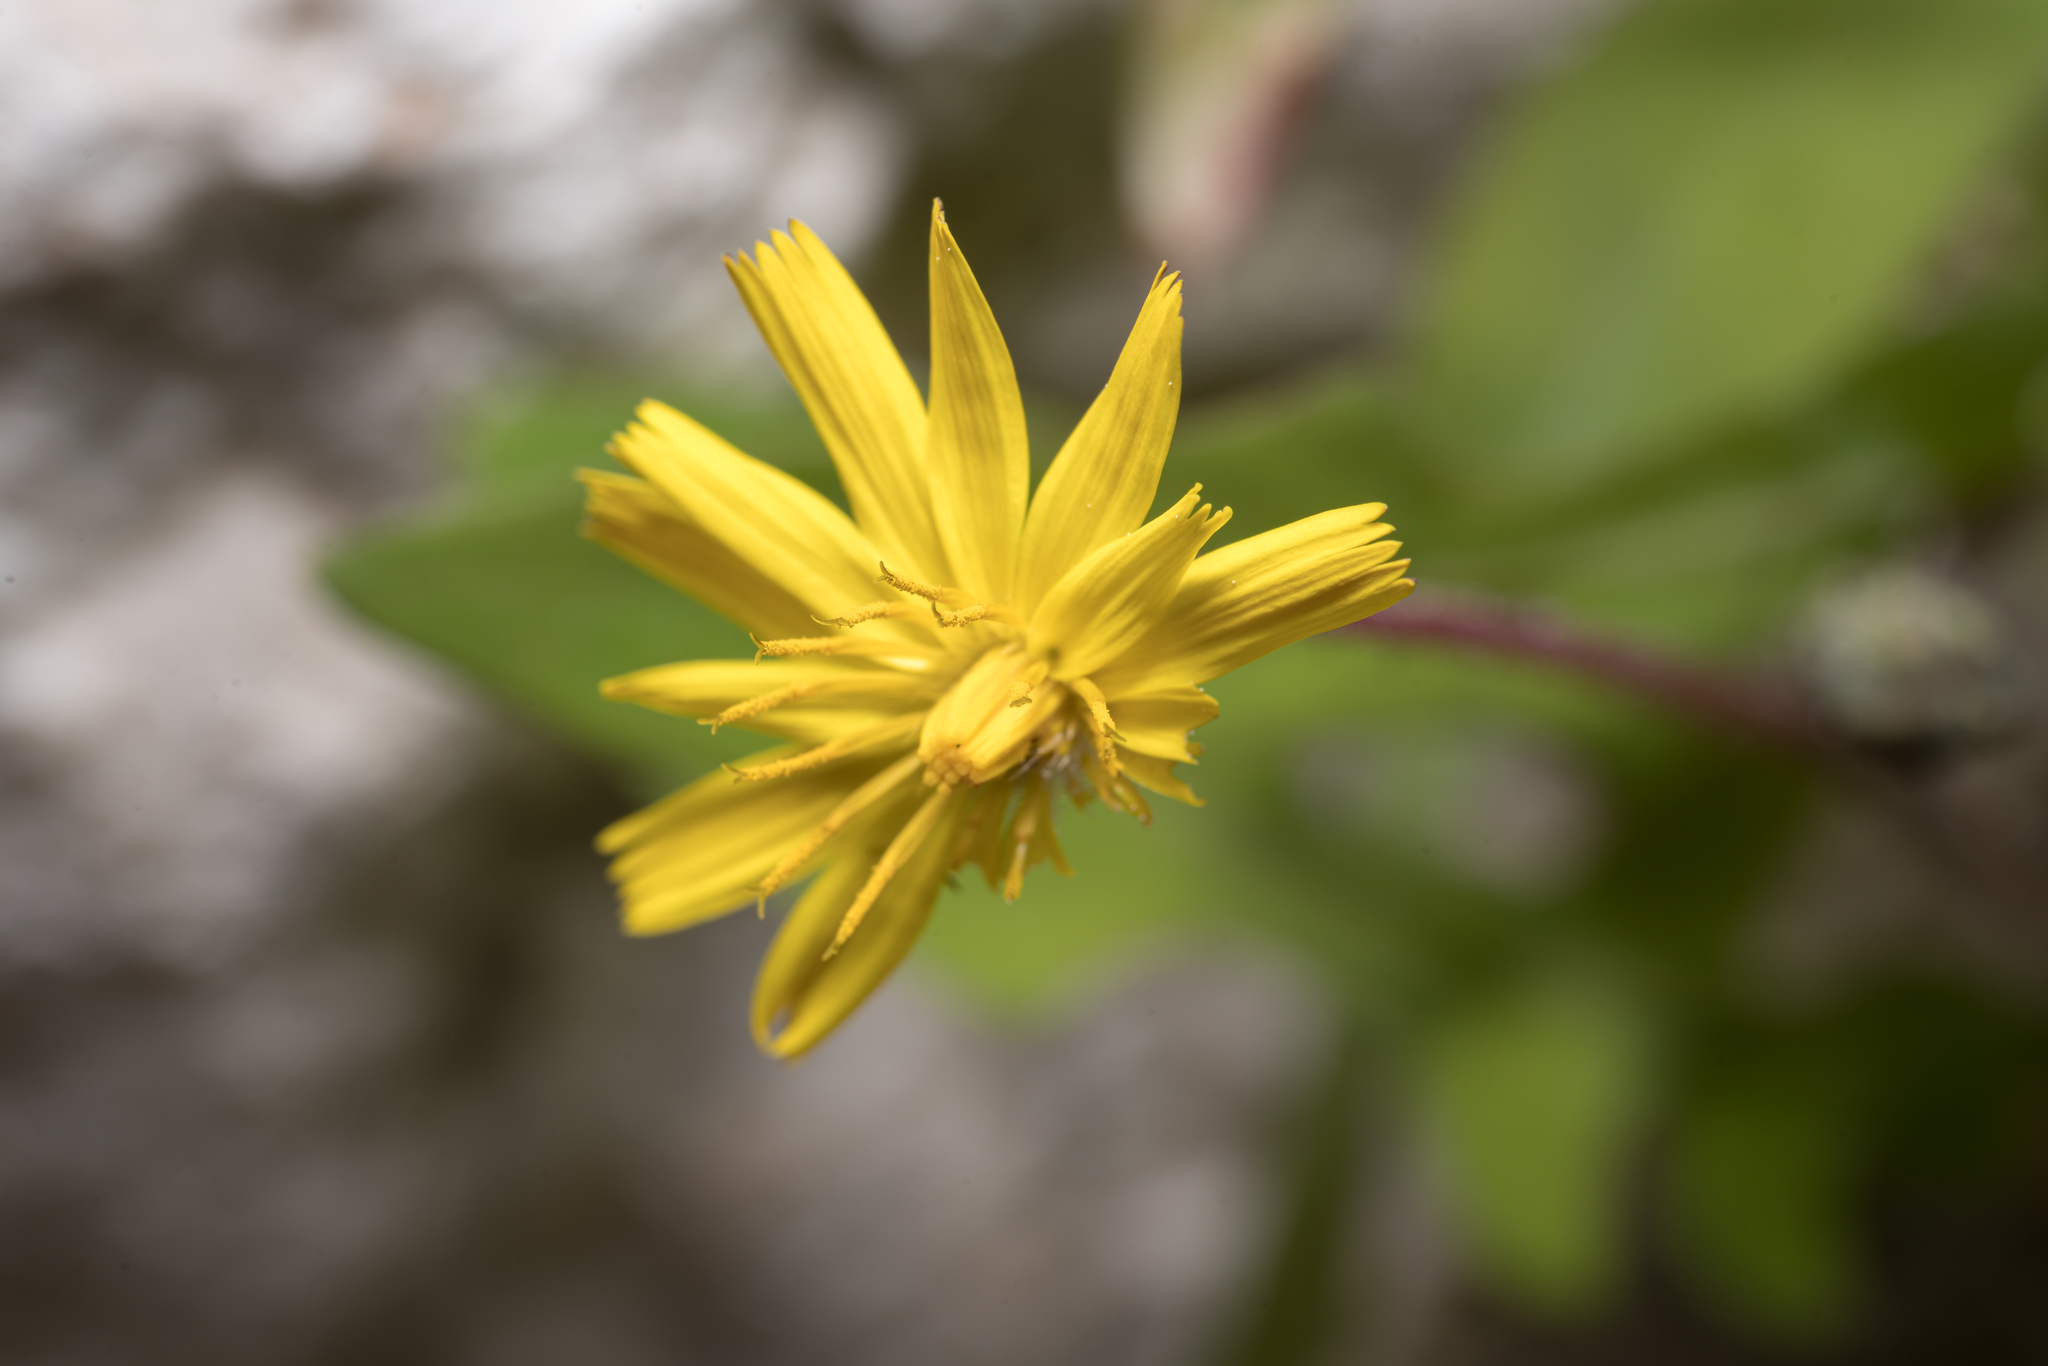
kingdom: Plantae
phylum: Tracheophyta
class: Magnoliopsida
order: Asterales
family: Asteraceae
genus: Aetheorhiza
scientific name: Aetheorhiza bulbosa
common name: Tuberous hawk's-beard
